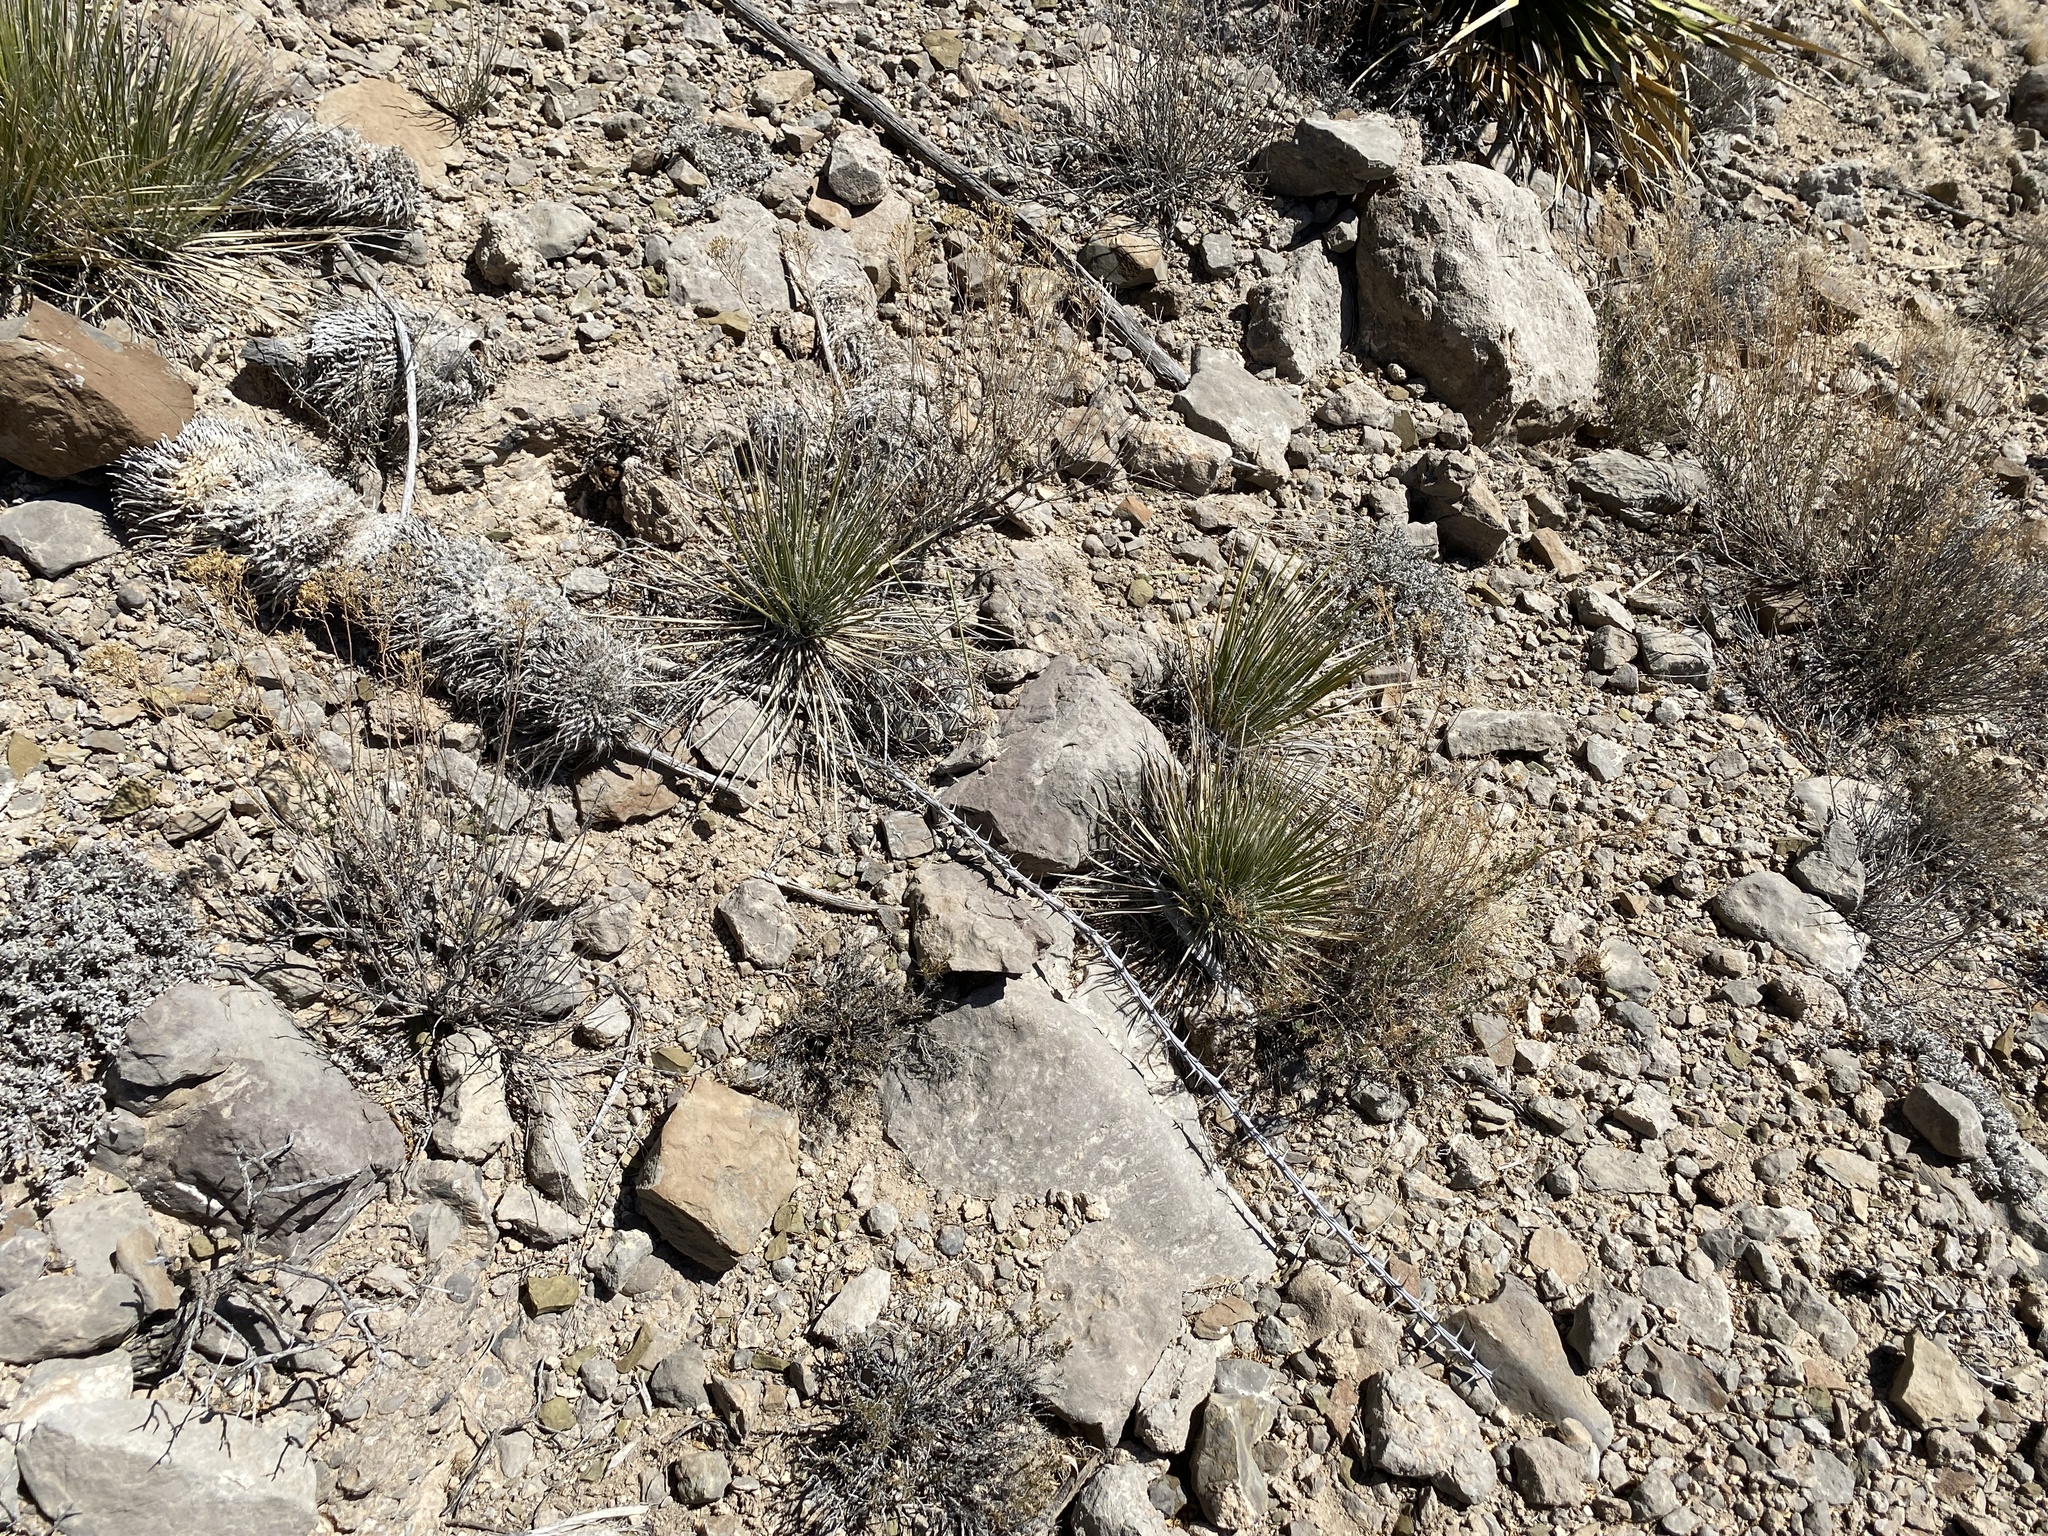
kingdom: Plantae
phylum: Tracheophyta
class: Liliopsida
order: Asparagales
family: Asparagaceae
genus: Yucca
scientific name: Yucca elata
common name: Palmella
